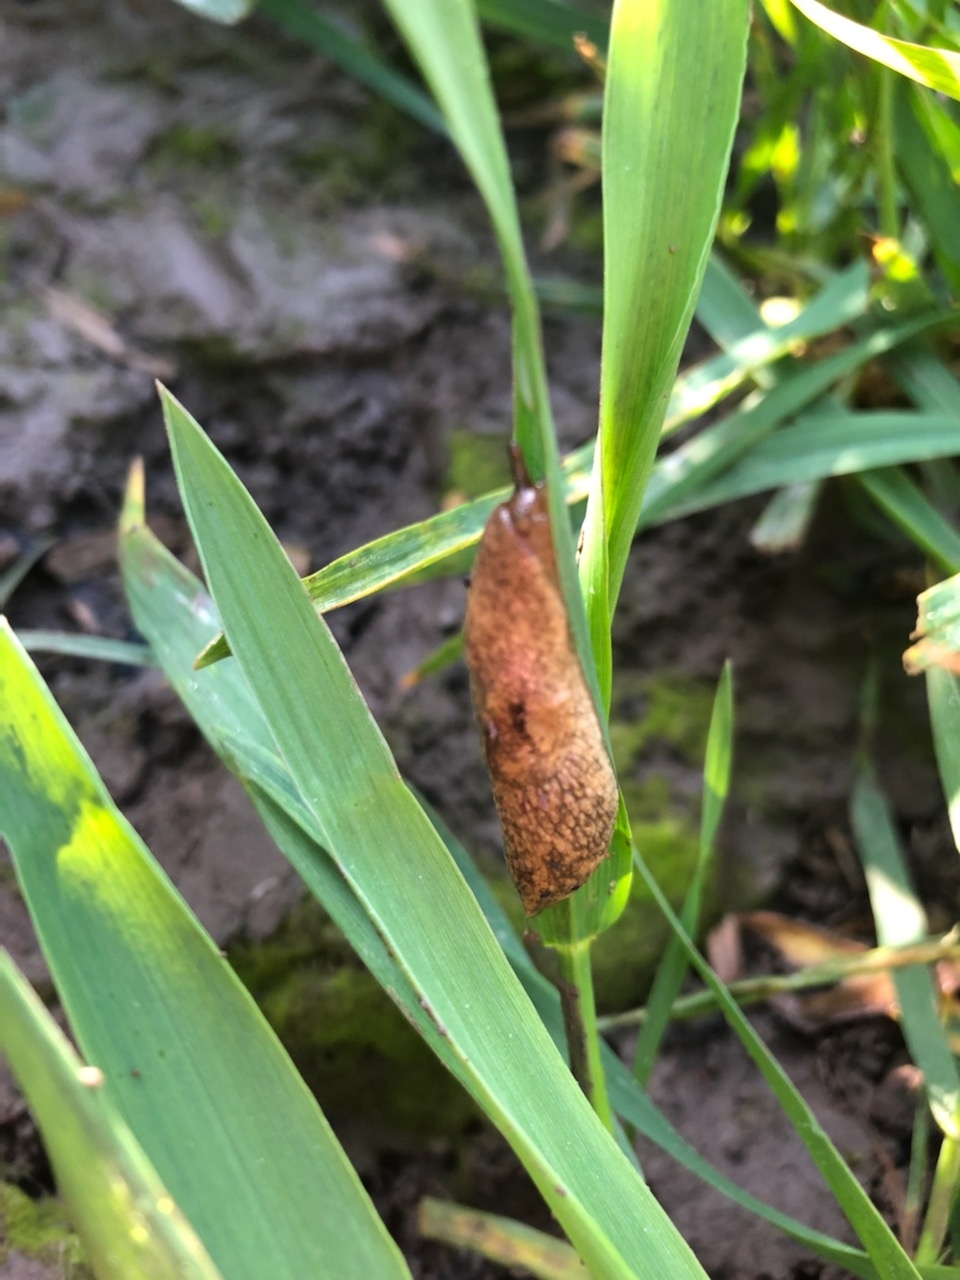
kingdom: Animalia
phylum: Mollusca
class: Gastropoda
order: Stylommatophora
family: Agriolimacidae
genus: Deroceras
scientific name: Deroceras reticulatum
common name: Gray field slug
